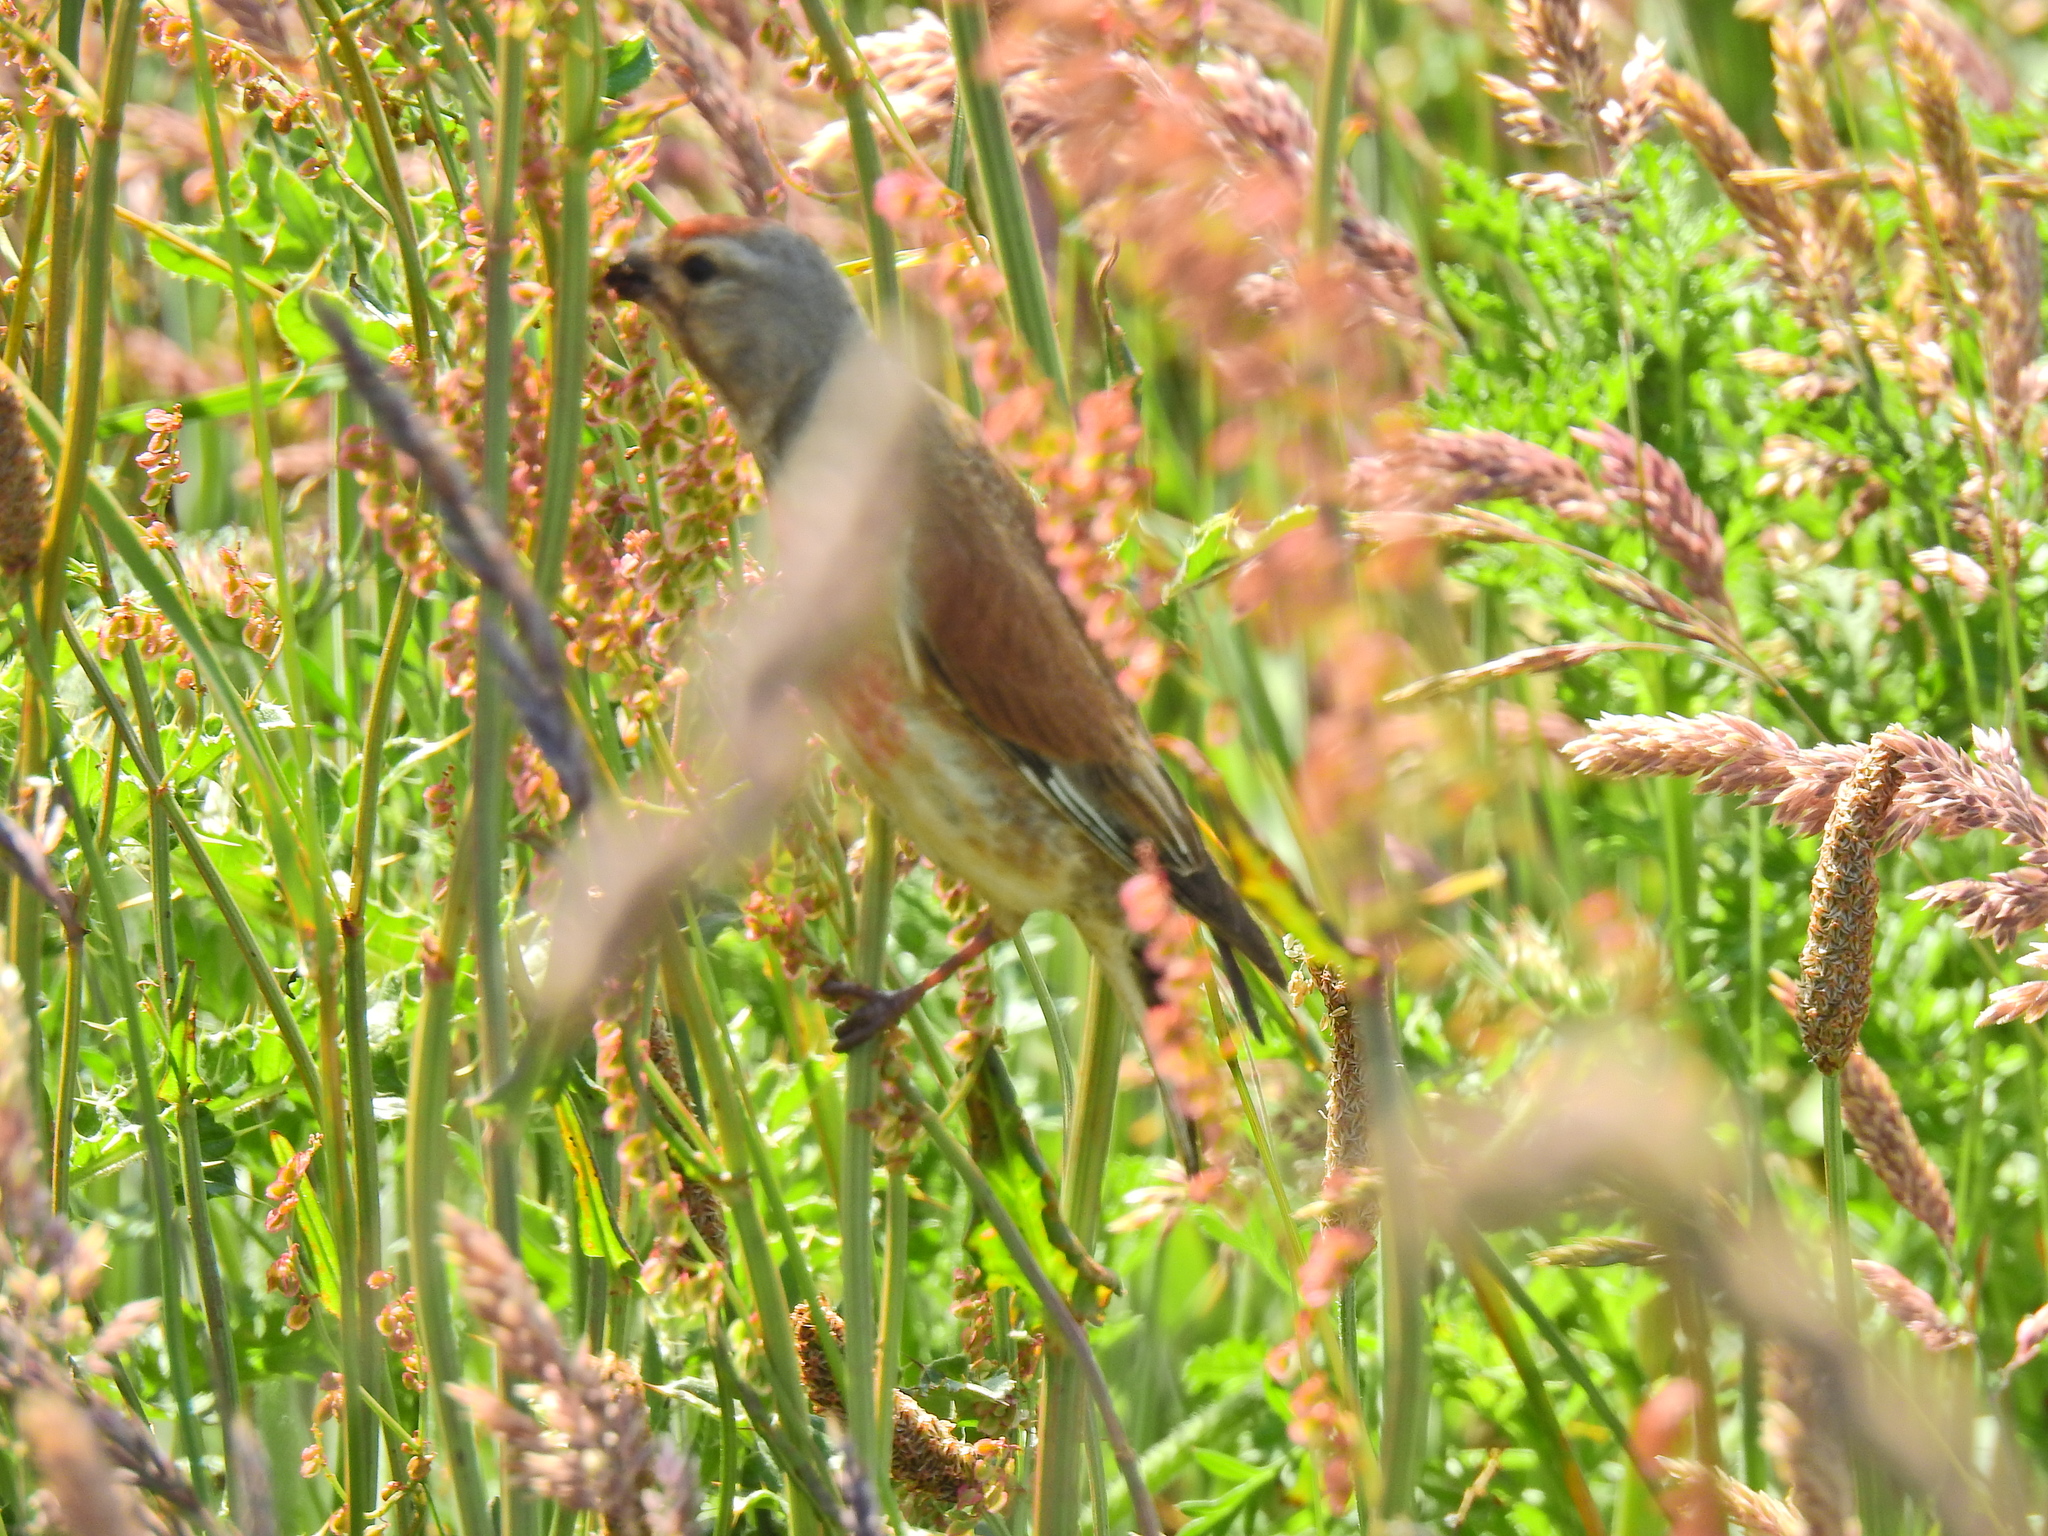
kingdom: Animalia
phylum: Chordata
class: Aves
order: Passeriformes
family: Fringillidae
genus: Linaria
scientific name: Linaria cannabina
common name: Common linnet
